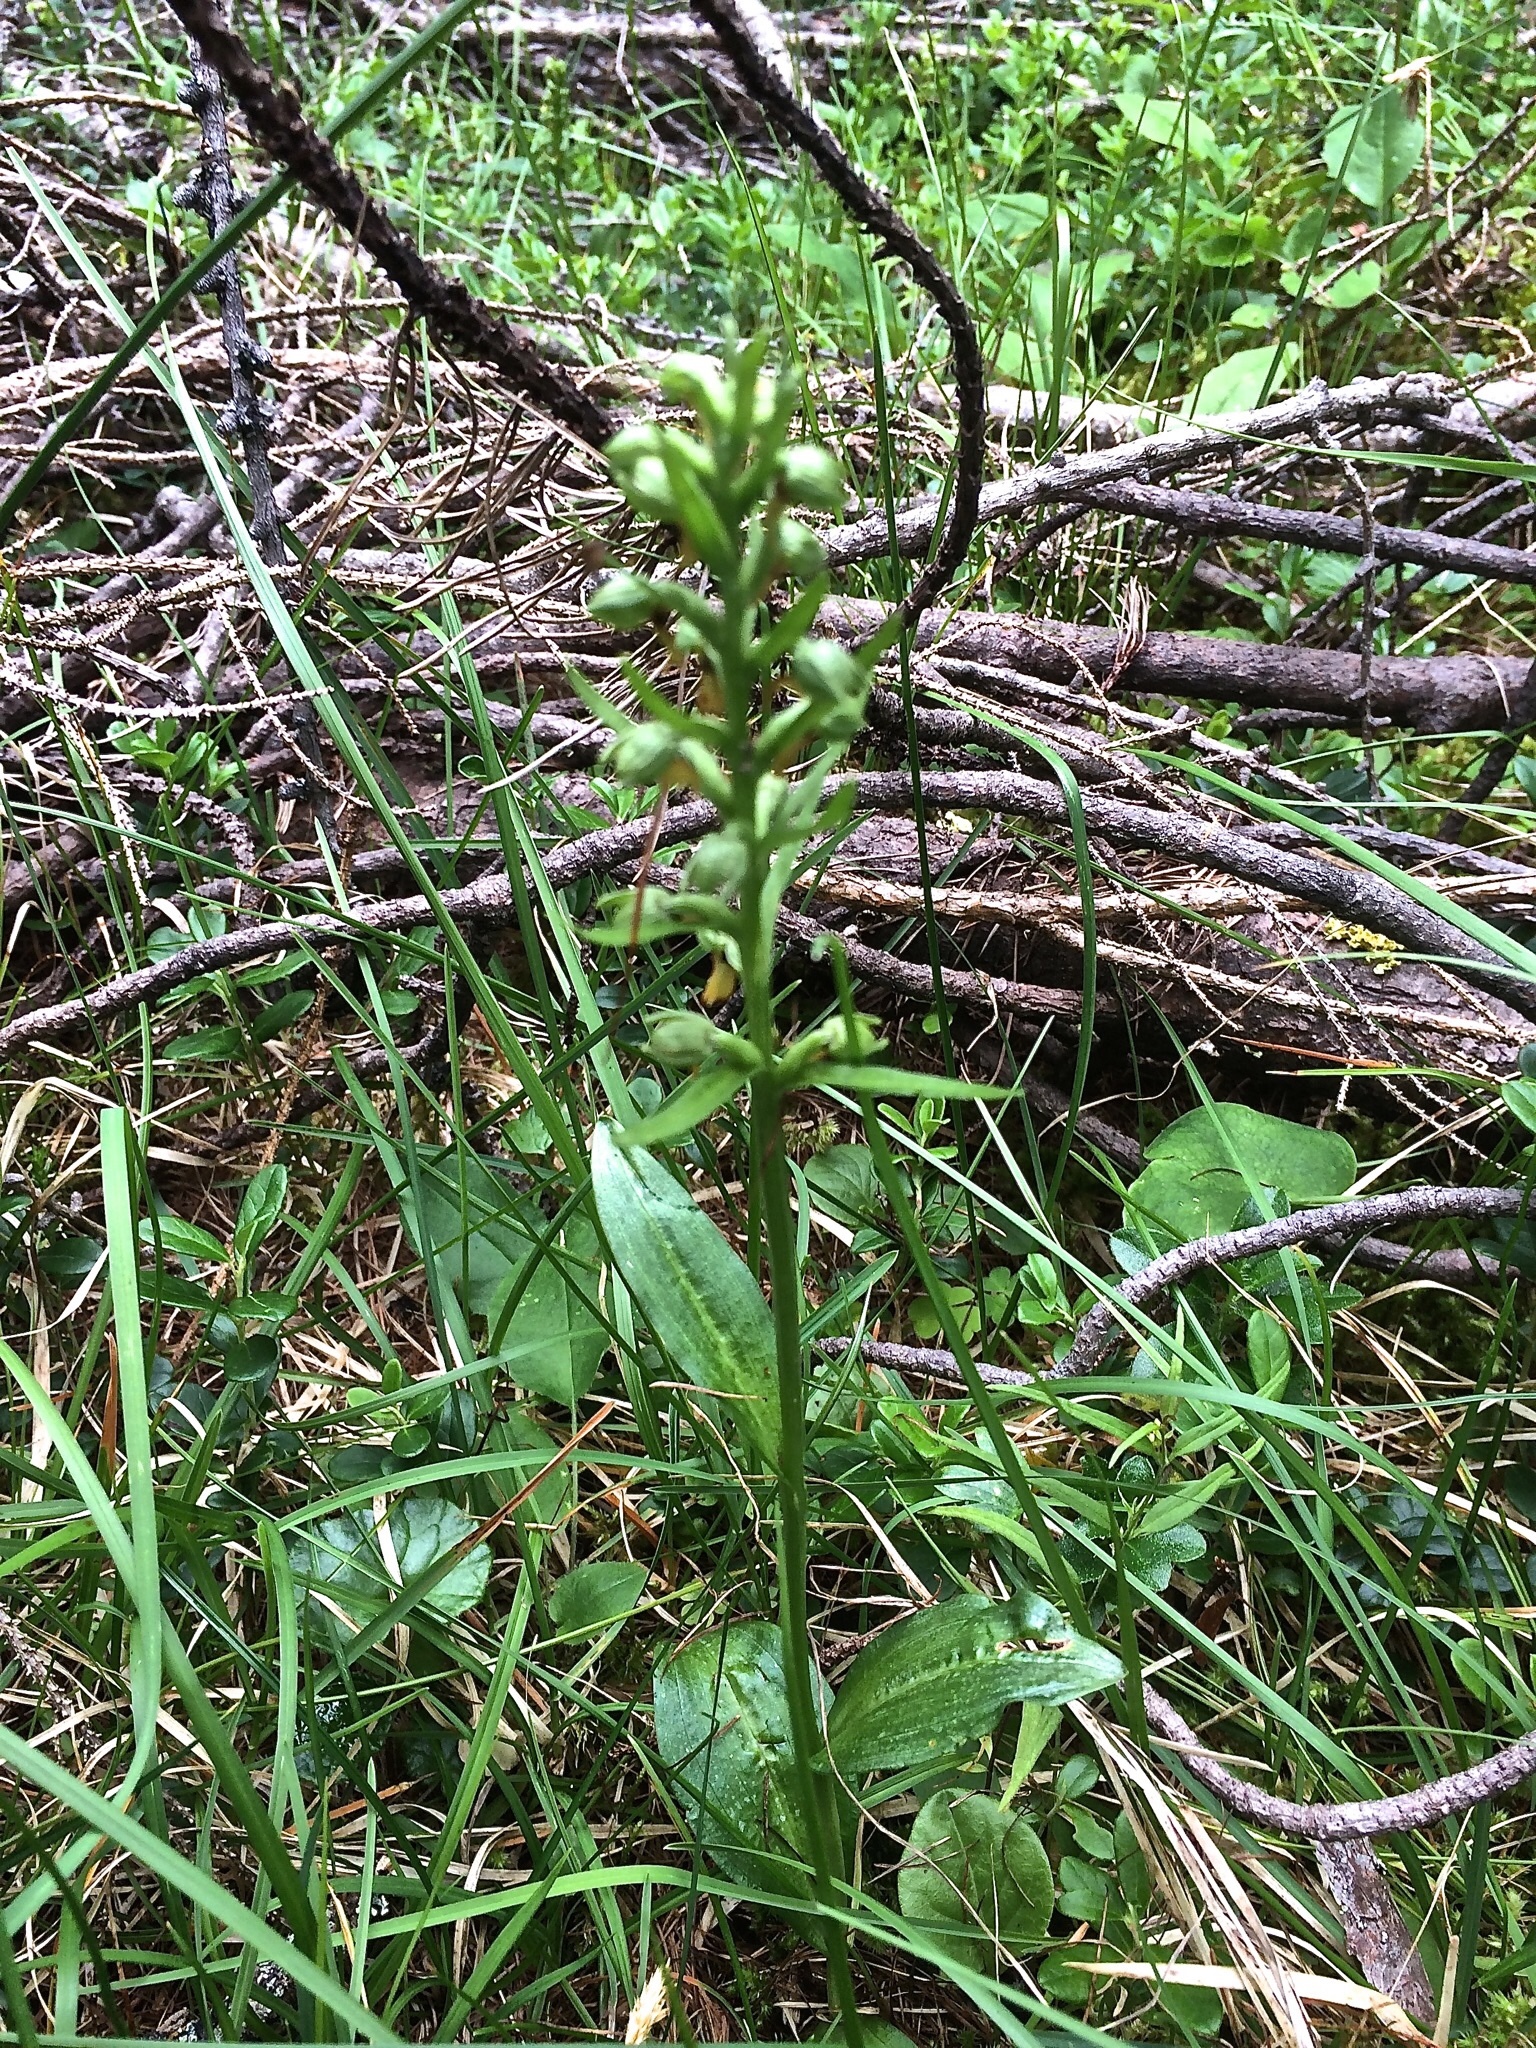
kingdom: Plantae
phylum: Tracheophyta
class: Liliopsida
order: Asparagales
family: Orchidaceae
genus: Dactylorhiza
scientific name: Dactylorhiza viridis
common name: Longbract frog orchid
